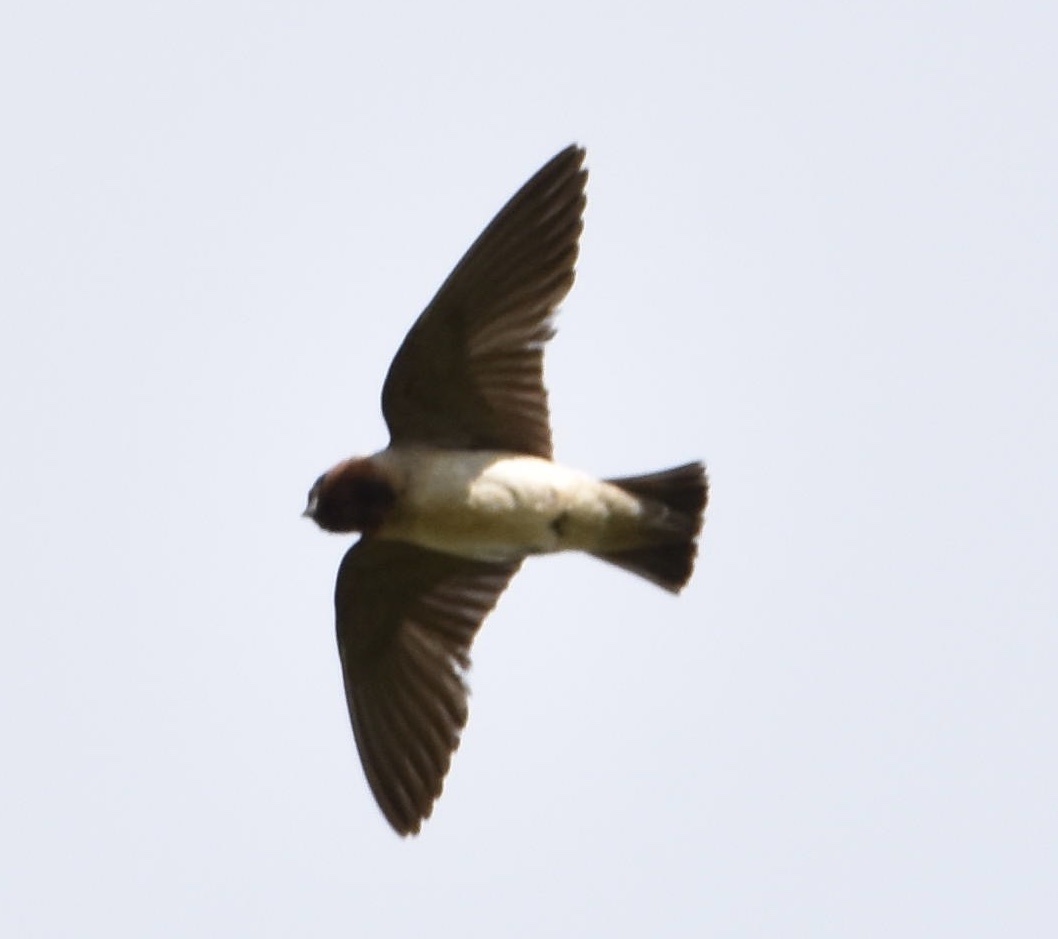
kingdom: Animalia
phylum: Chordata
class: Aves
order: Passeriformes
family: Hirundinidae
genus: Petrochelidon
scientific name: Petrochelidon pyrrhonota
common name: American cliff swallow
